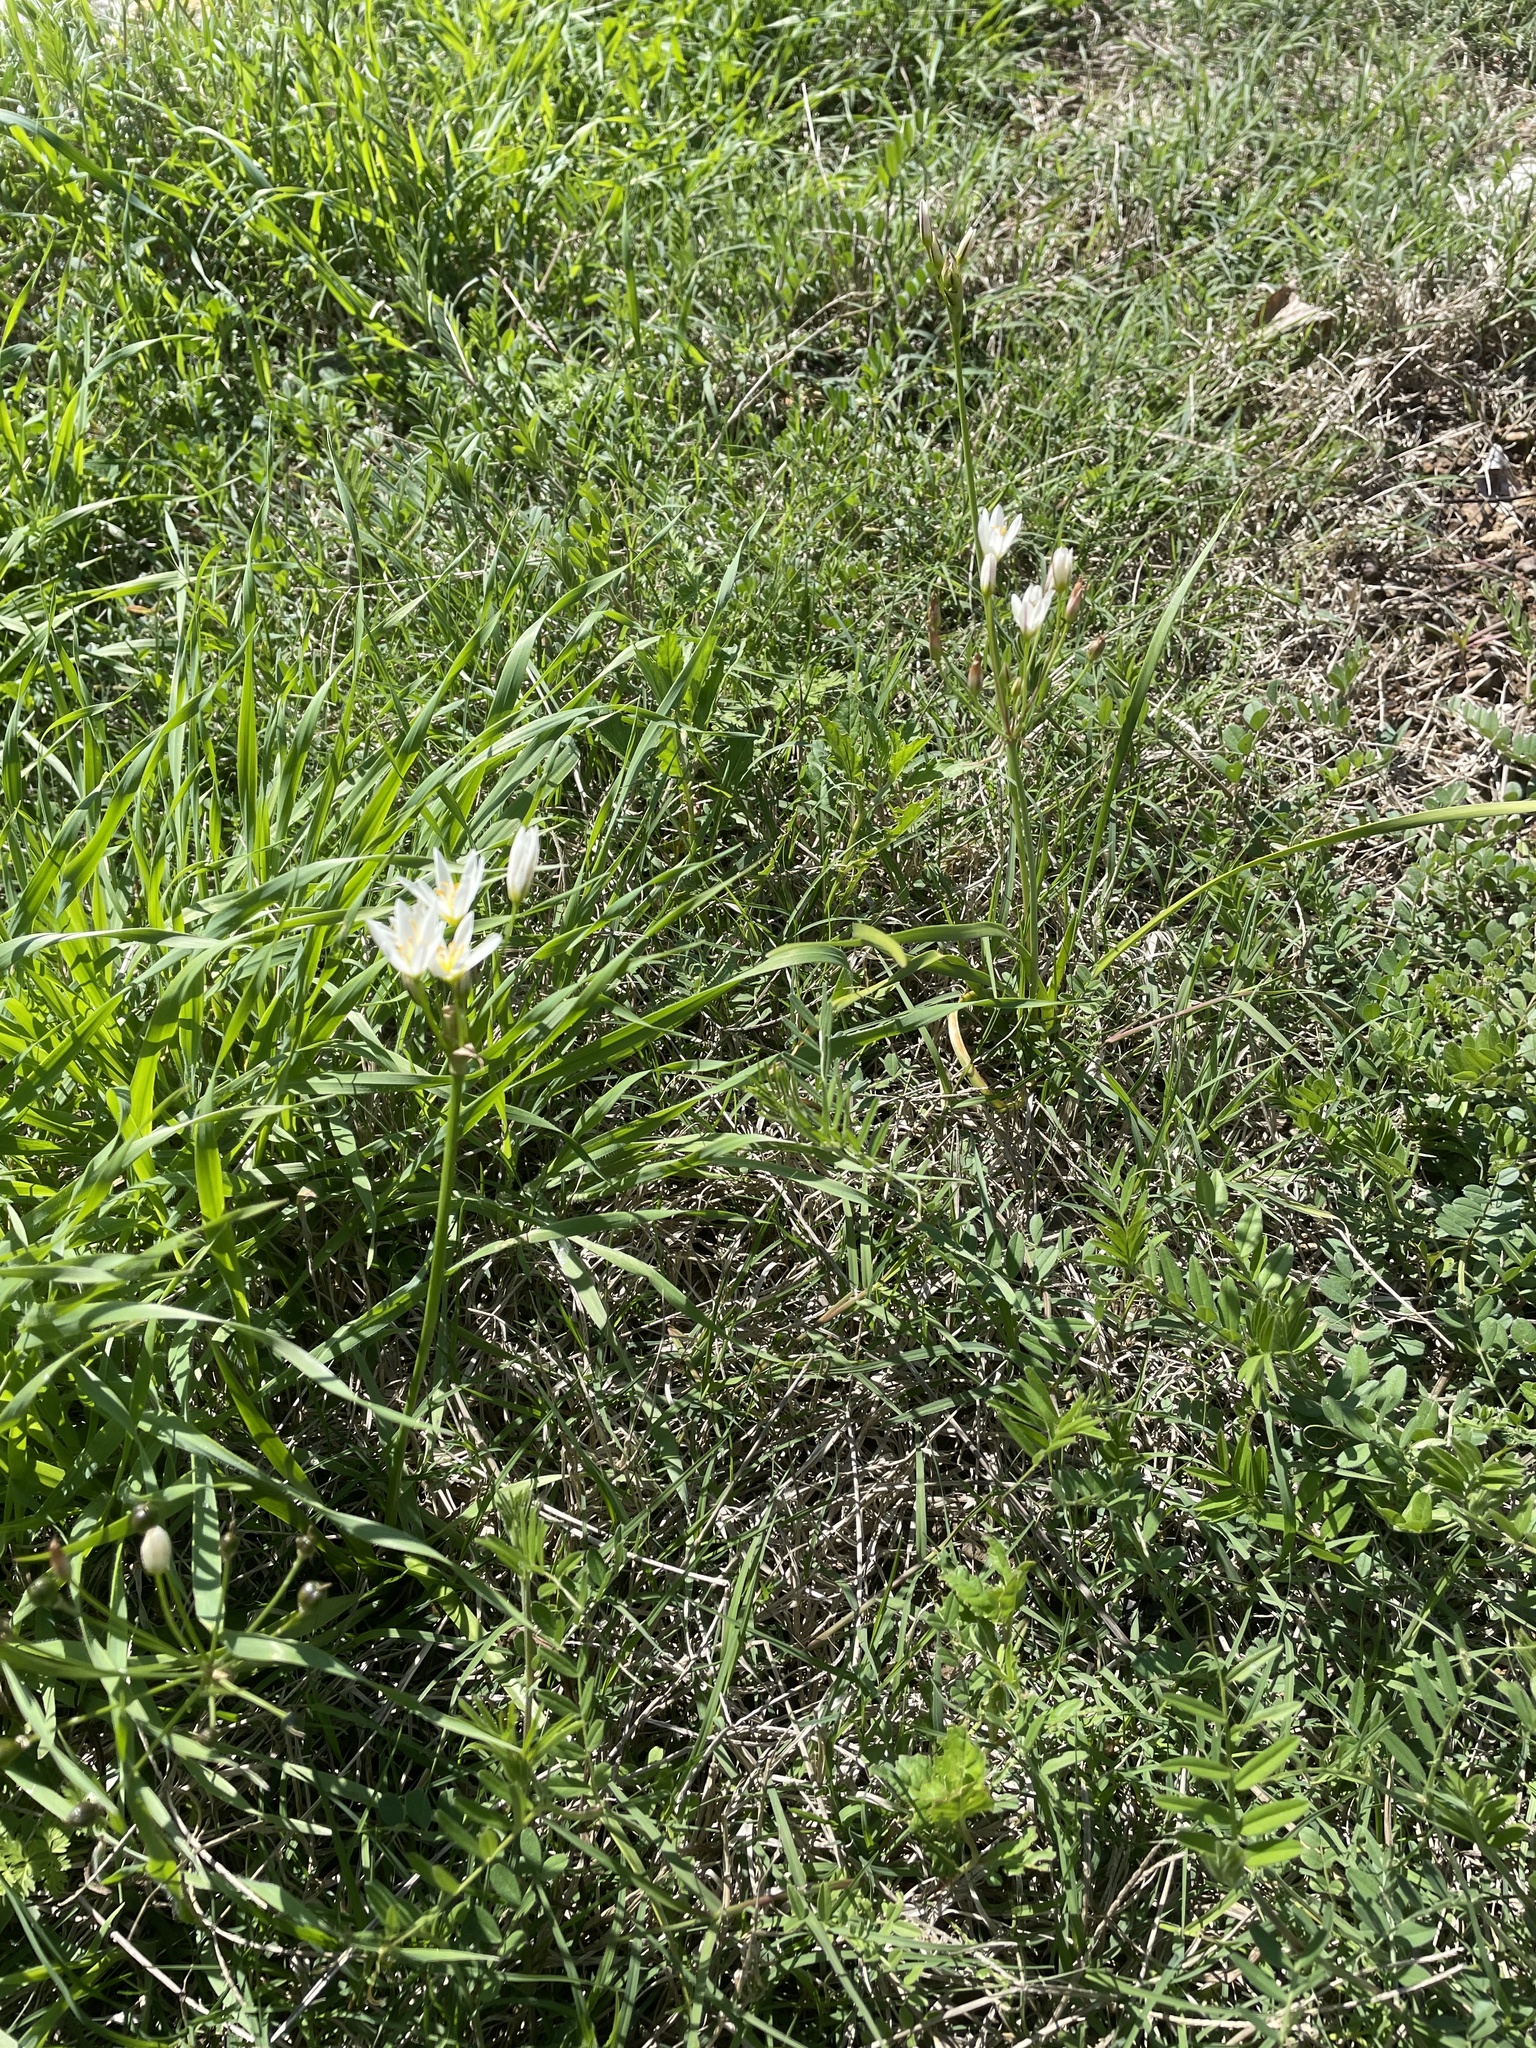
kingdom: Plantae
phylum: Tracheophyta
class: Liliopsida
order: Asparagales
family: Amaryllidaceae
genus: Nothoscordum
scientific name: Nothoscordum bivalve
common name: Crow-poison
